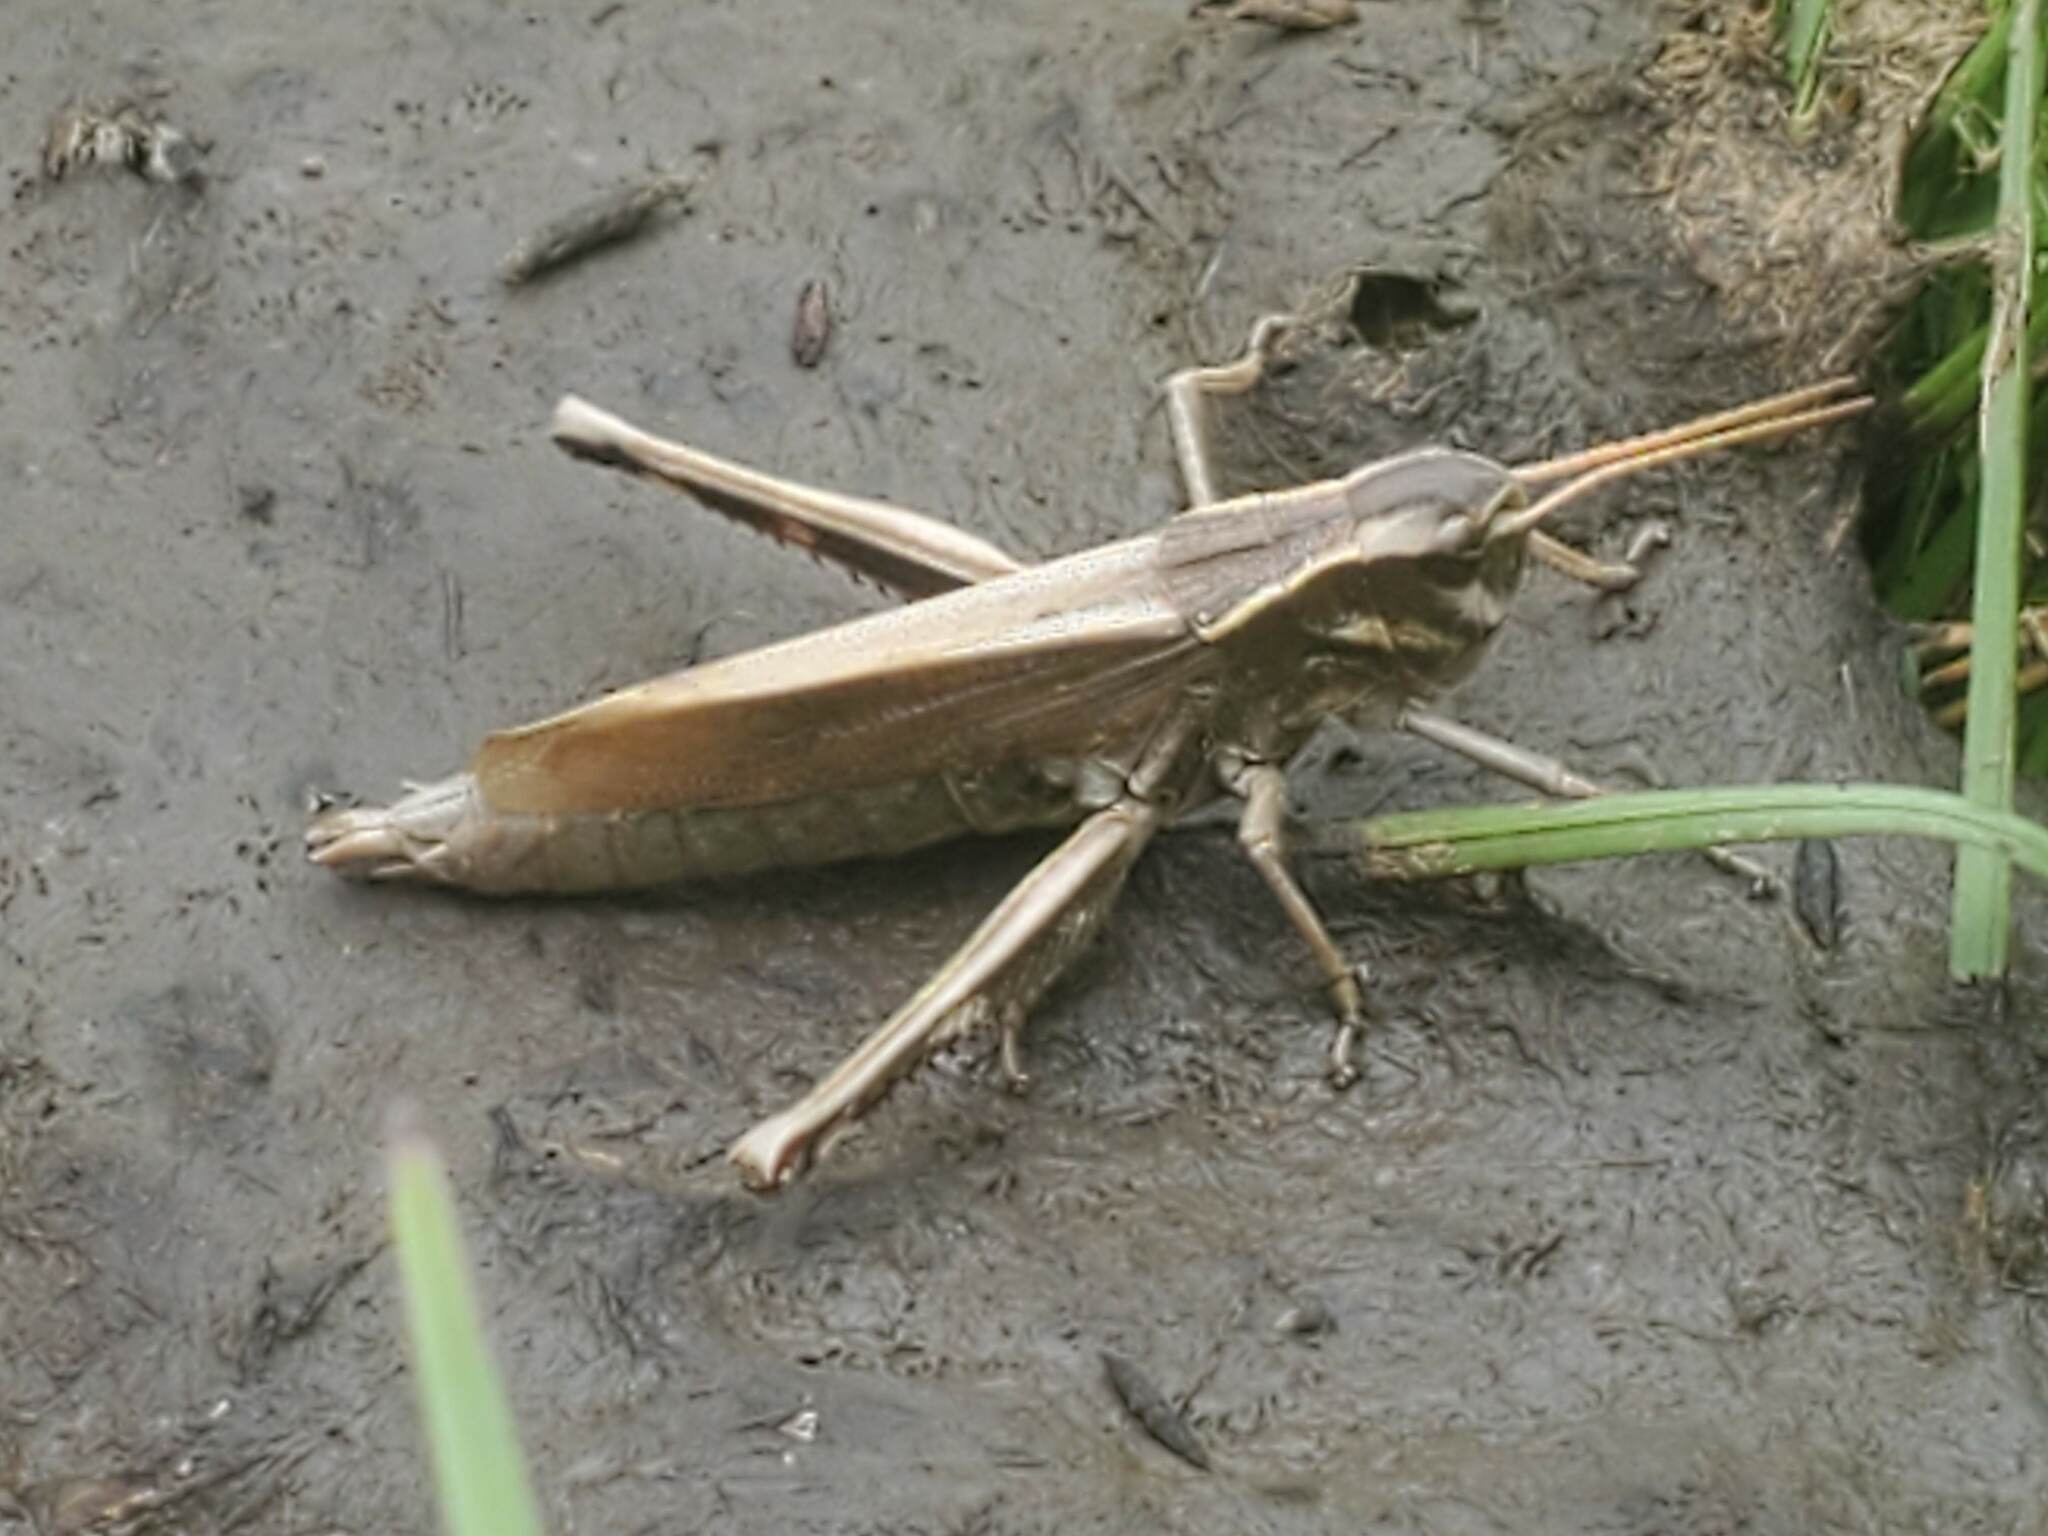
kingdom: Animalia
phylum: Arthropoda
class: Insecta
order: Orthoptera
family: Acrididae
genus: Stethophyma
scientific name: Stethophyma gracile
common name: Graceful sedge grasshopper
